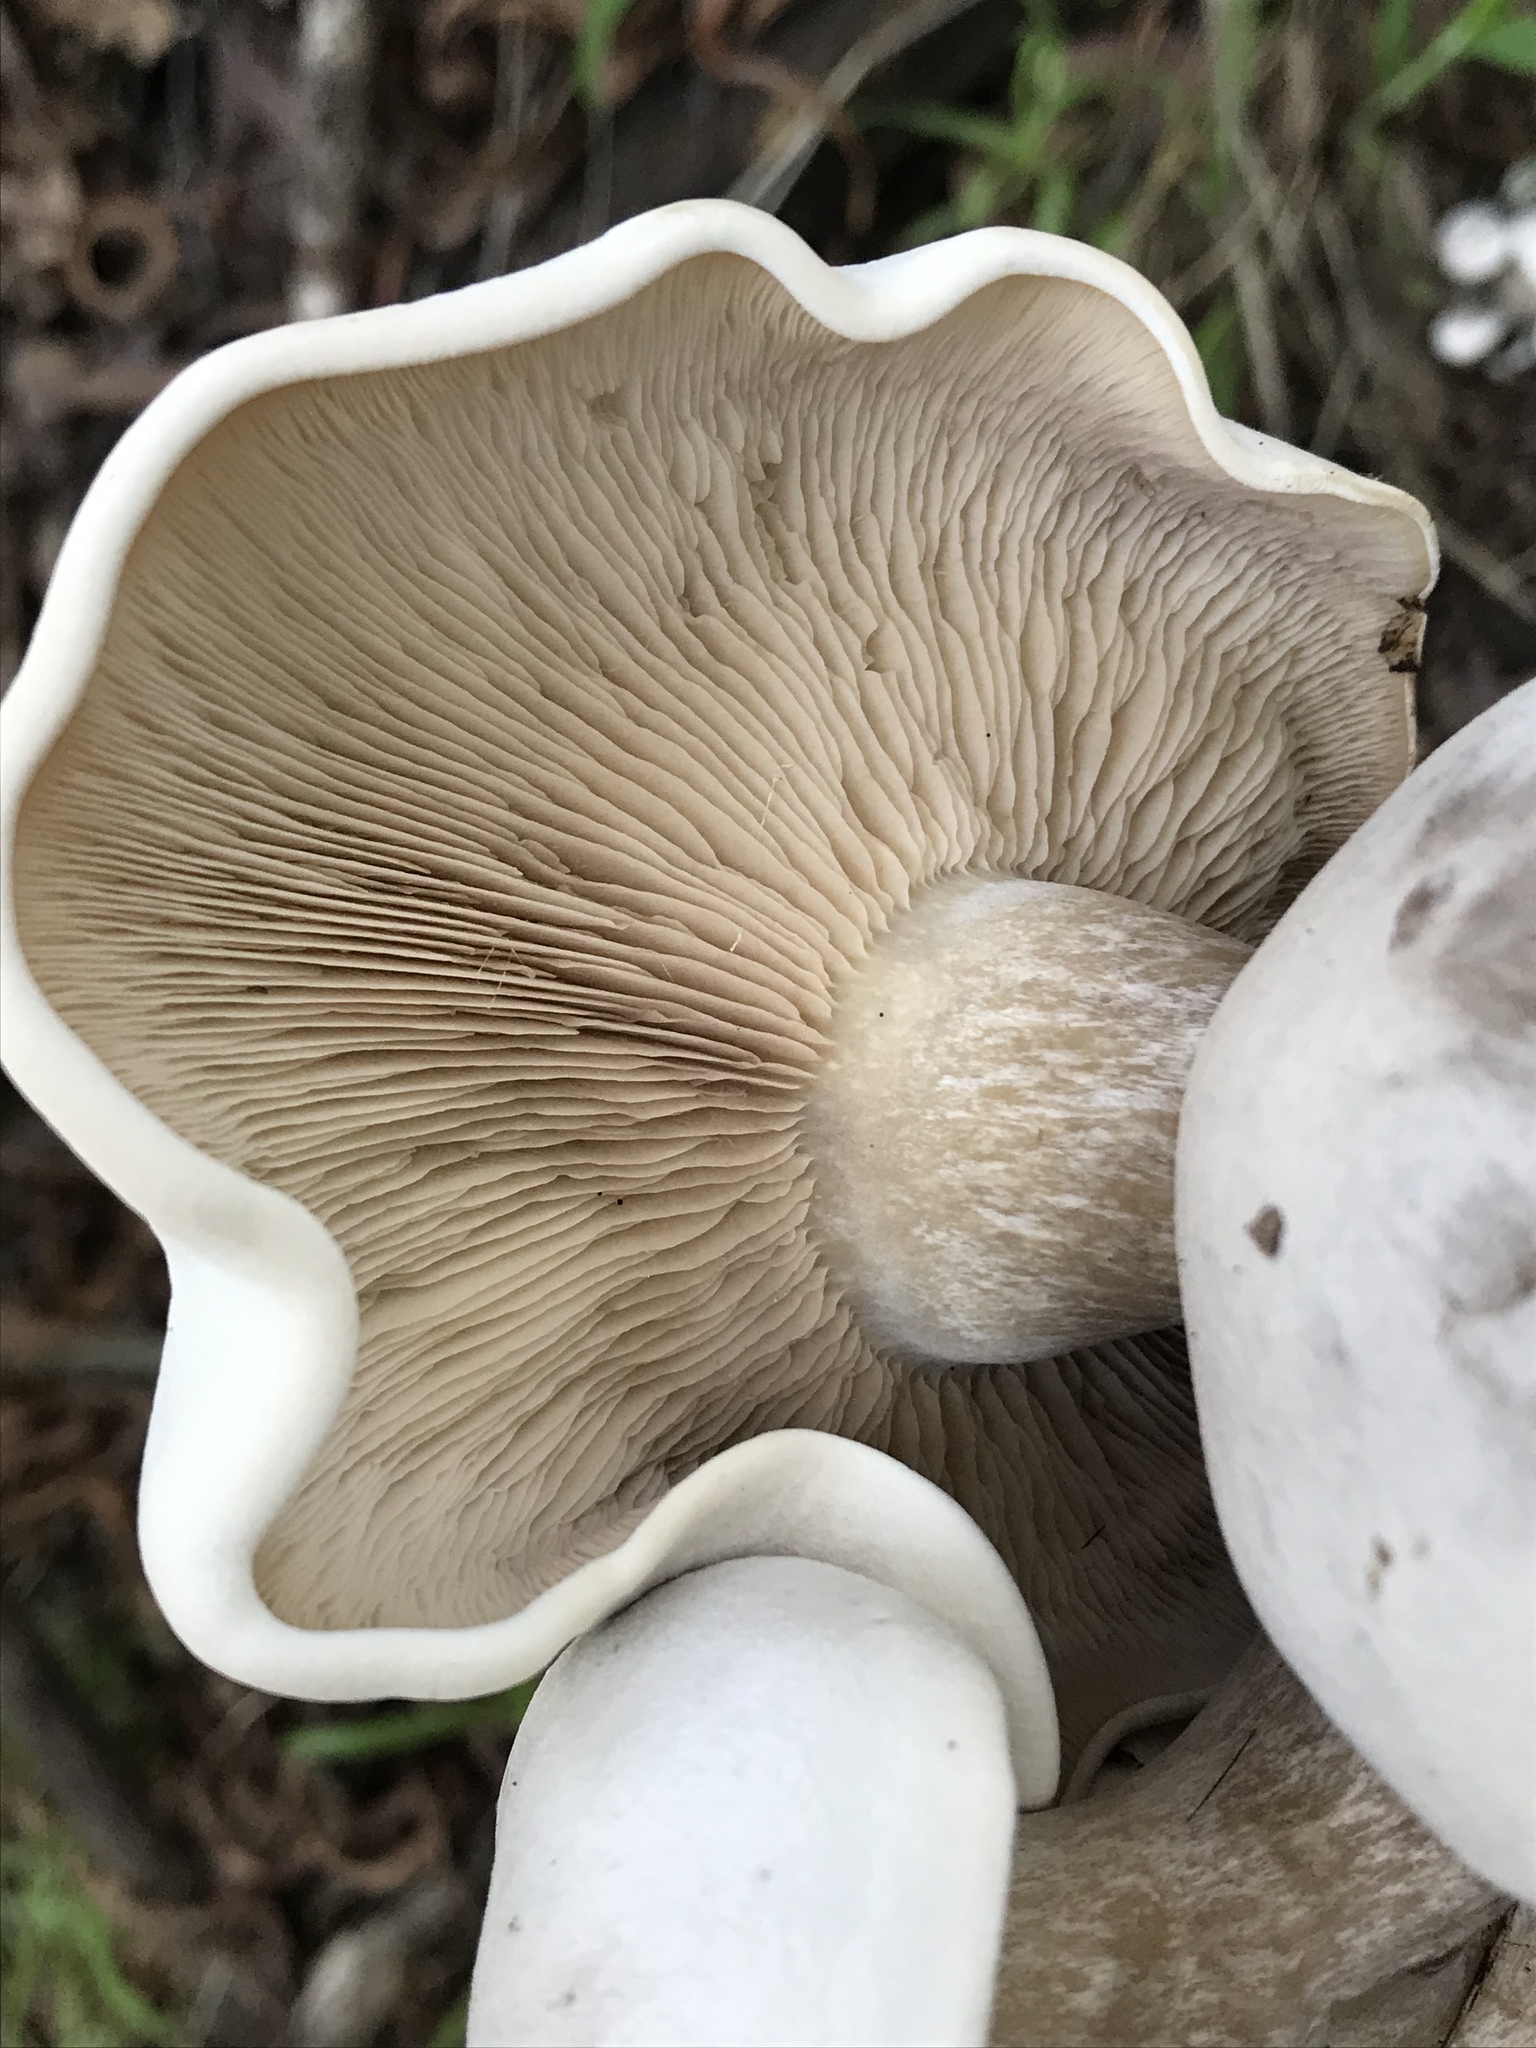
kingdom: Fungi
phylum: Basidiomycota
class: Agaricomycetes
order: Agaricales
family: Entolomataceae
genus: Clitopilus
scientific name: Clitopilus prunulus
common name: The miller
